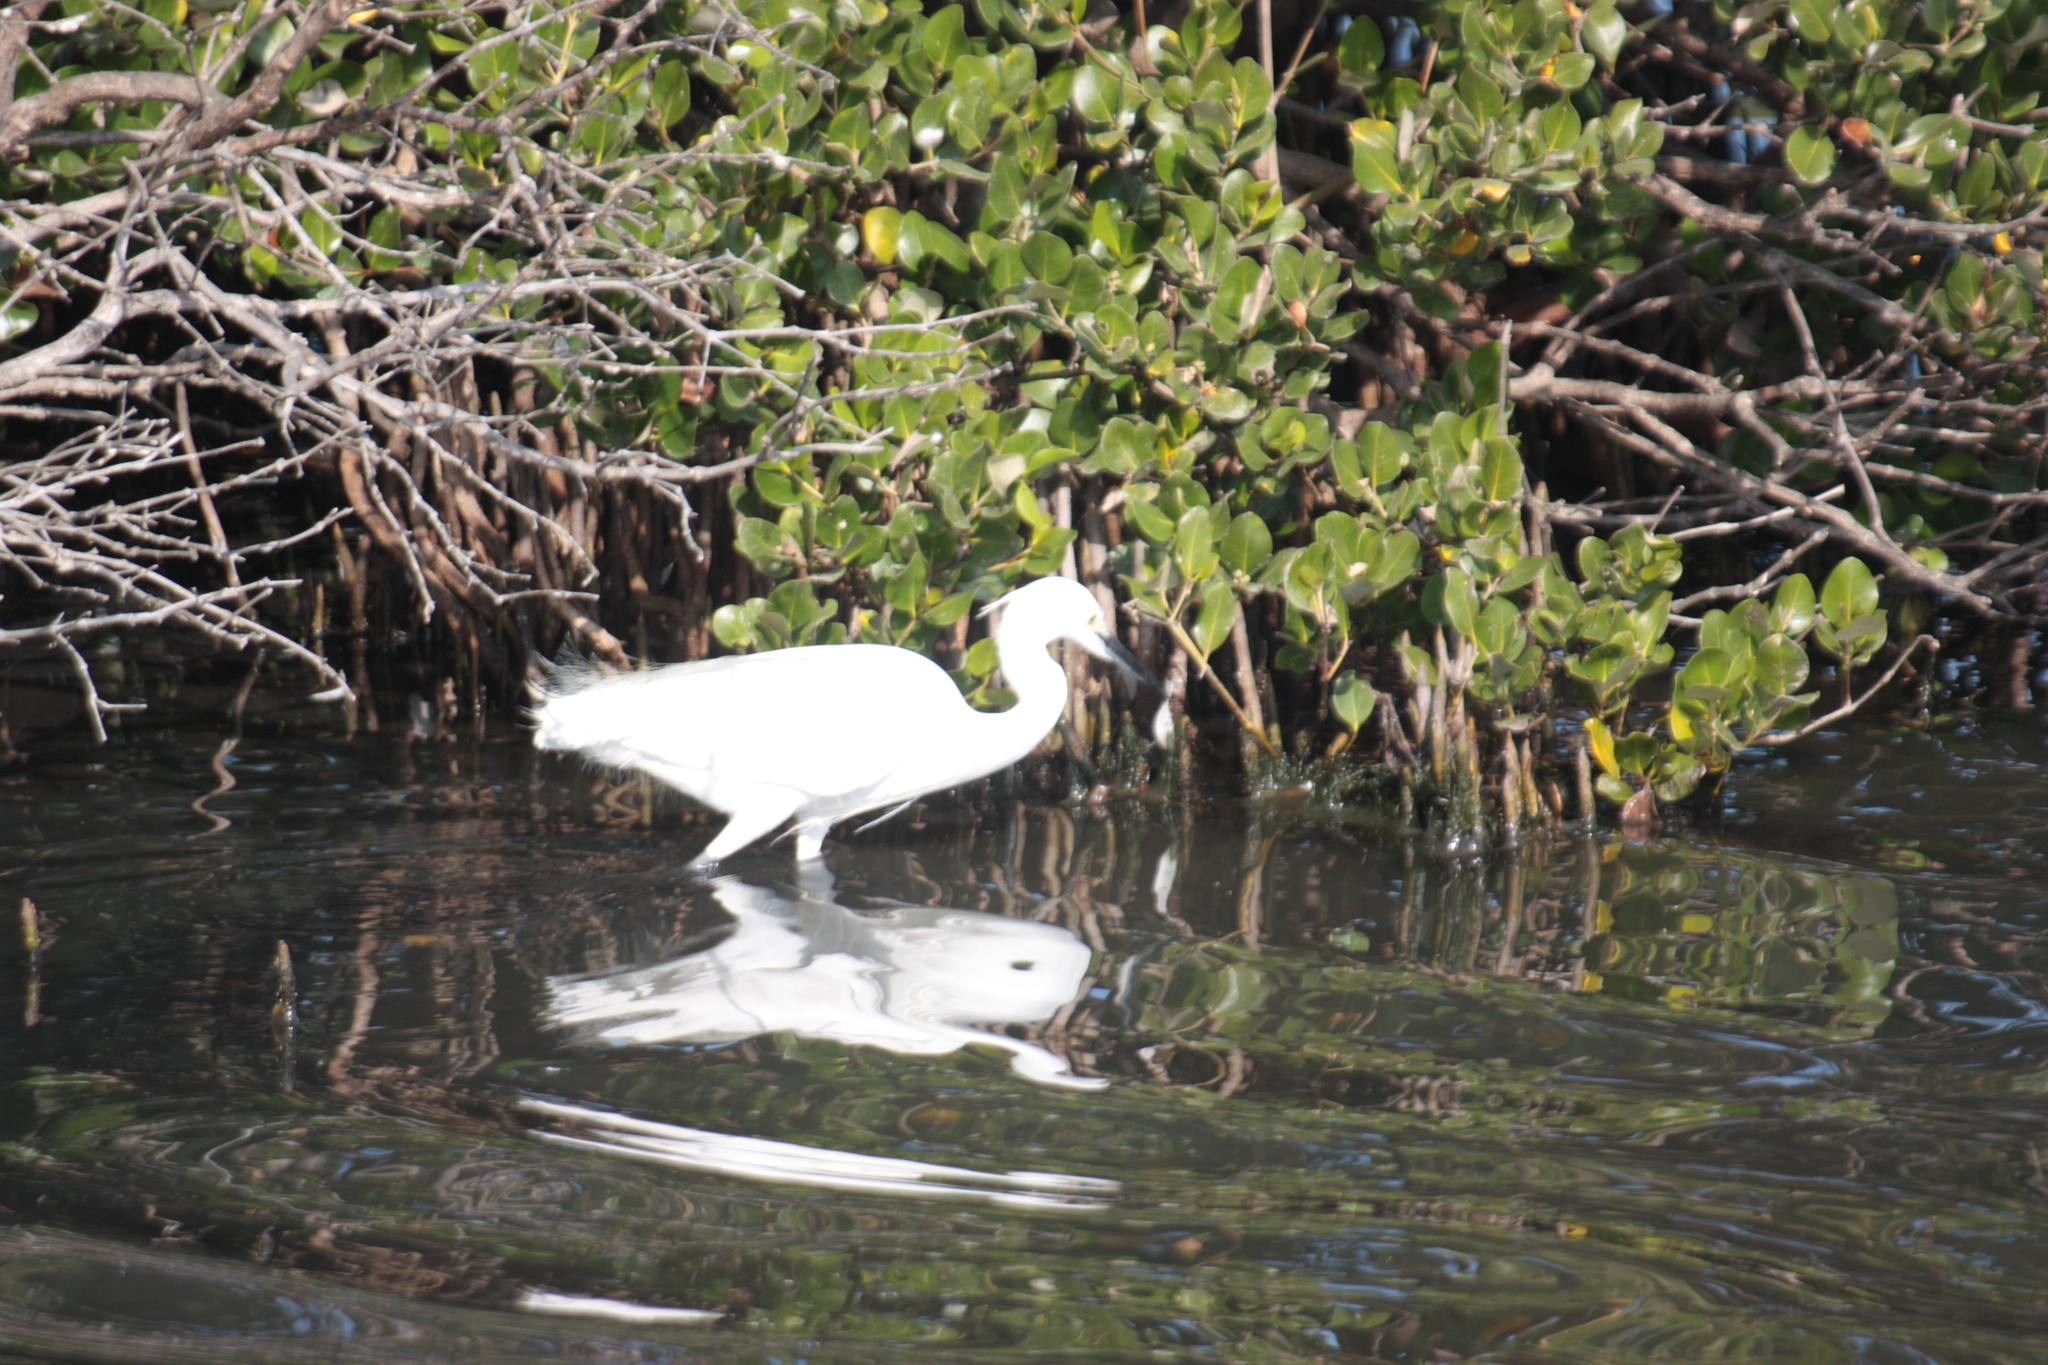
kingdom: Animalia
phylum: Chordata
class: Aves
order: Pelecaniformes
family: Ardeidae
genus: Egretta
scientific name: Egretta garzetta
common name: Little egret
